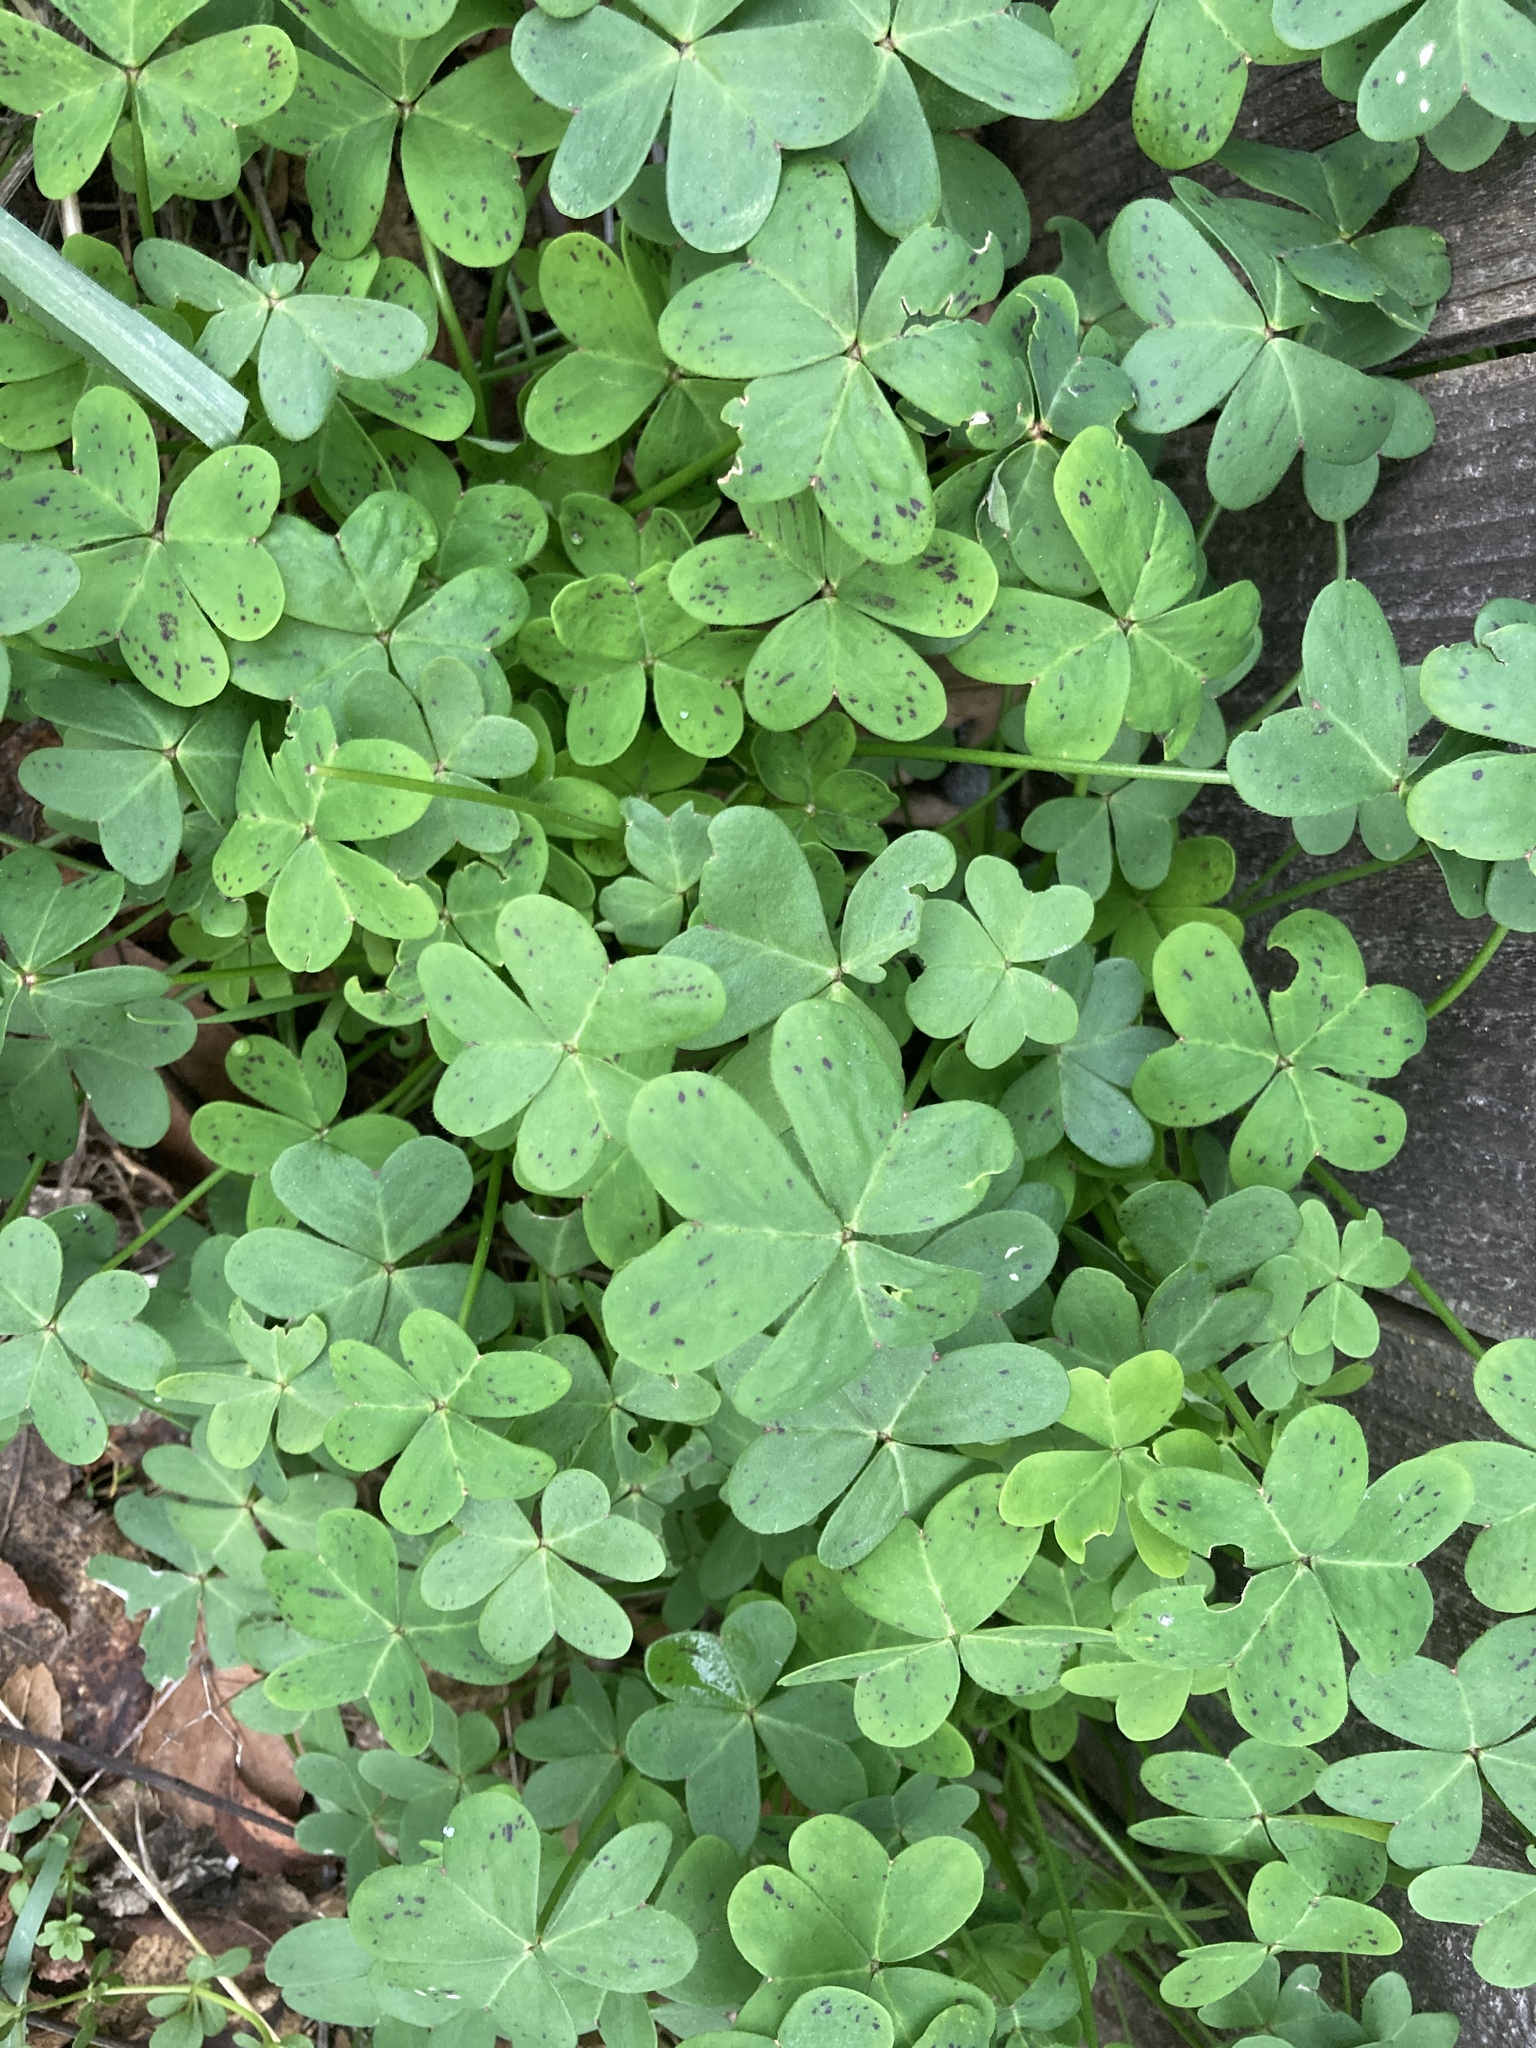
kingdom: Plantae
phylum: Tracheophyta
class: Magnoliopsida
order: Oxalidales
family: Oxalidaceae
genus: Oxalis
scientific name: Oxalis pes-caprae
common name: Bermuda-buttercup
